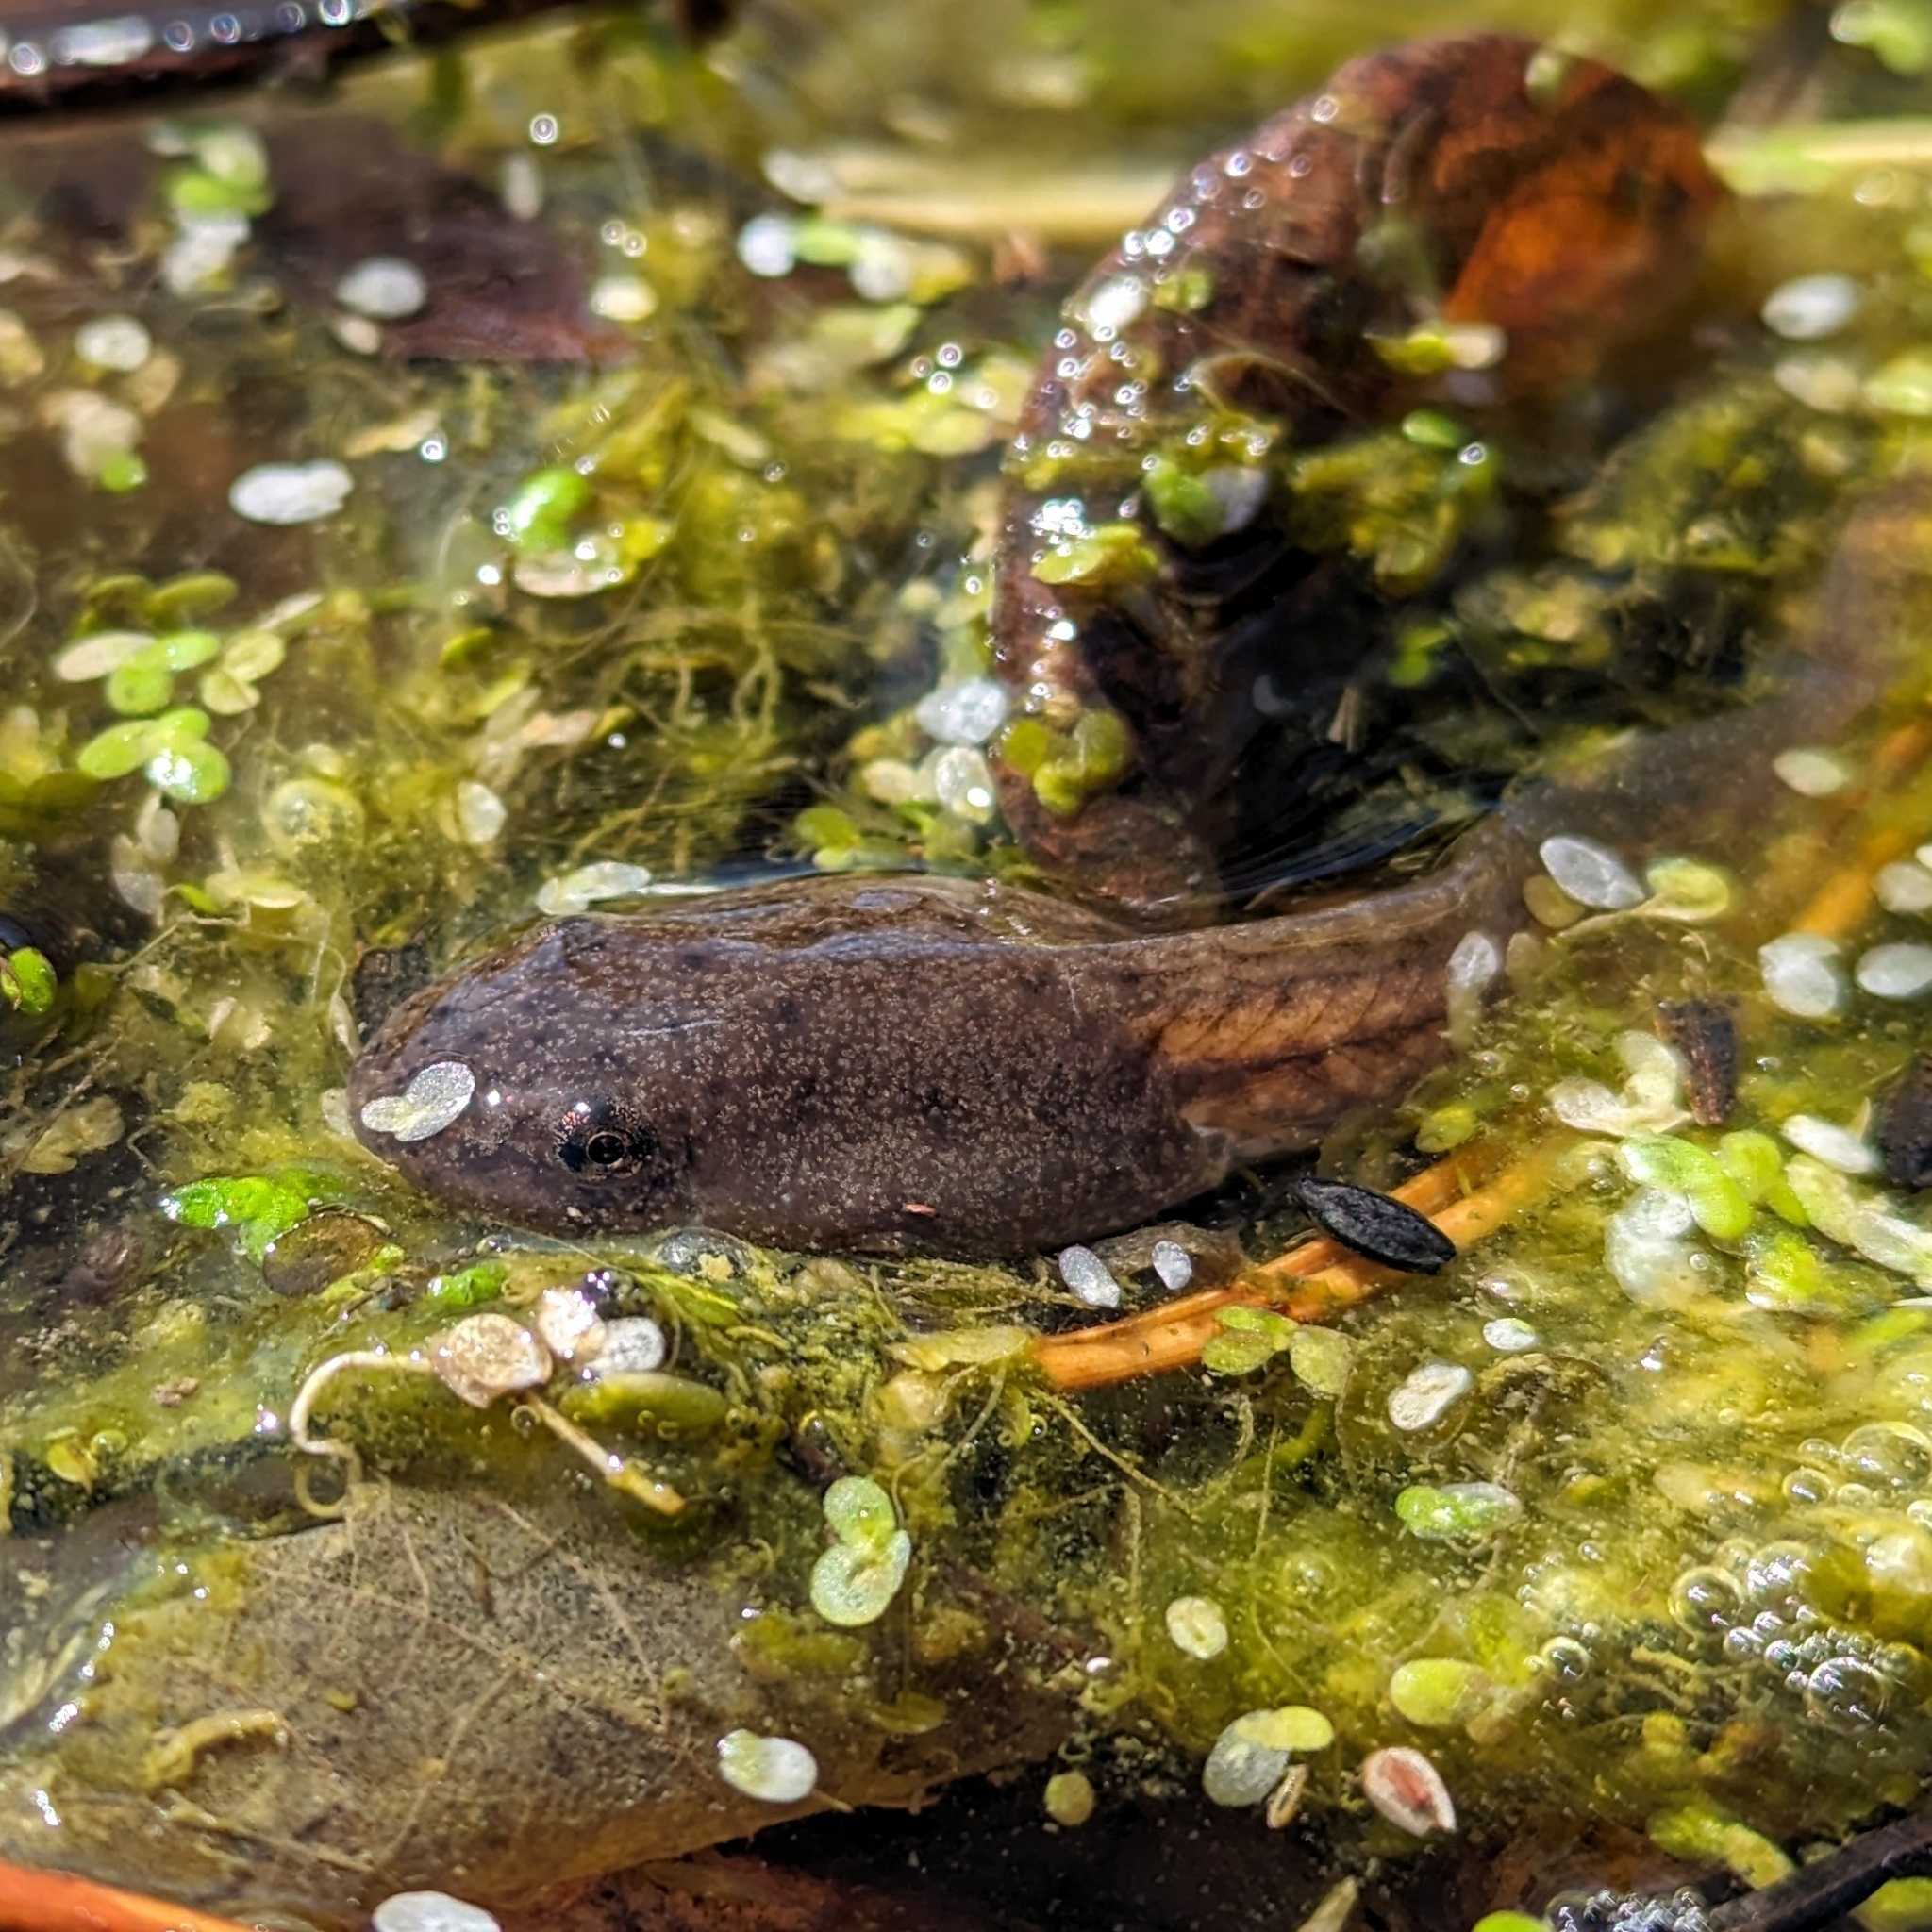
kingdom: Animalia
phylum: Chordata
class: Amphibia
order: Anura
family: Ranidae
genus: Lithobates
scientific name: Lithobates
